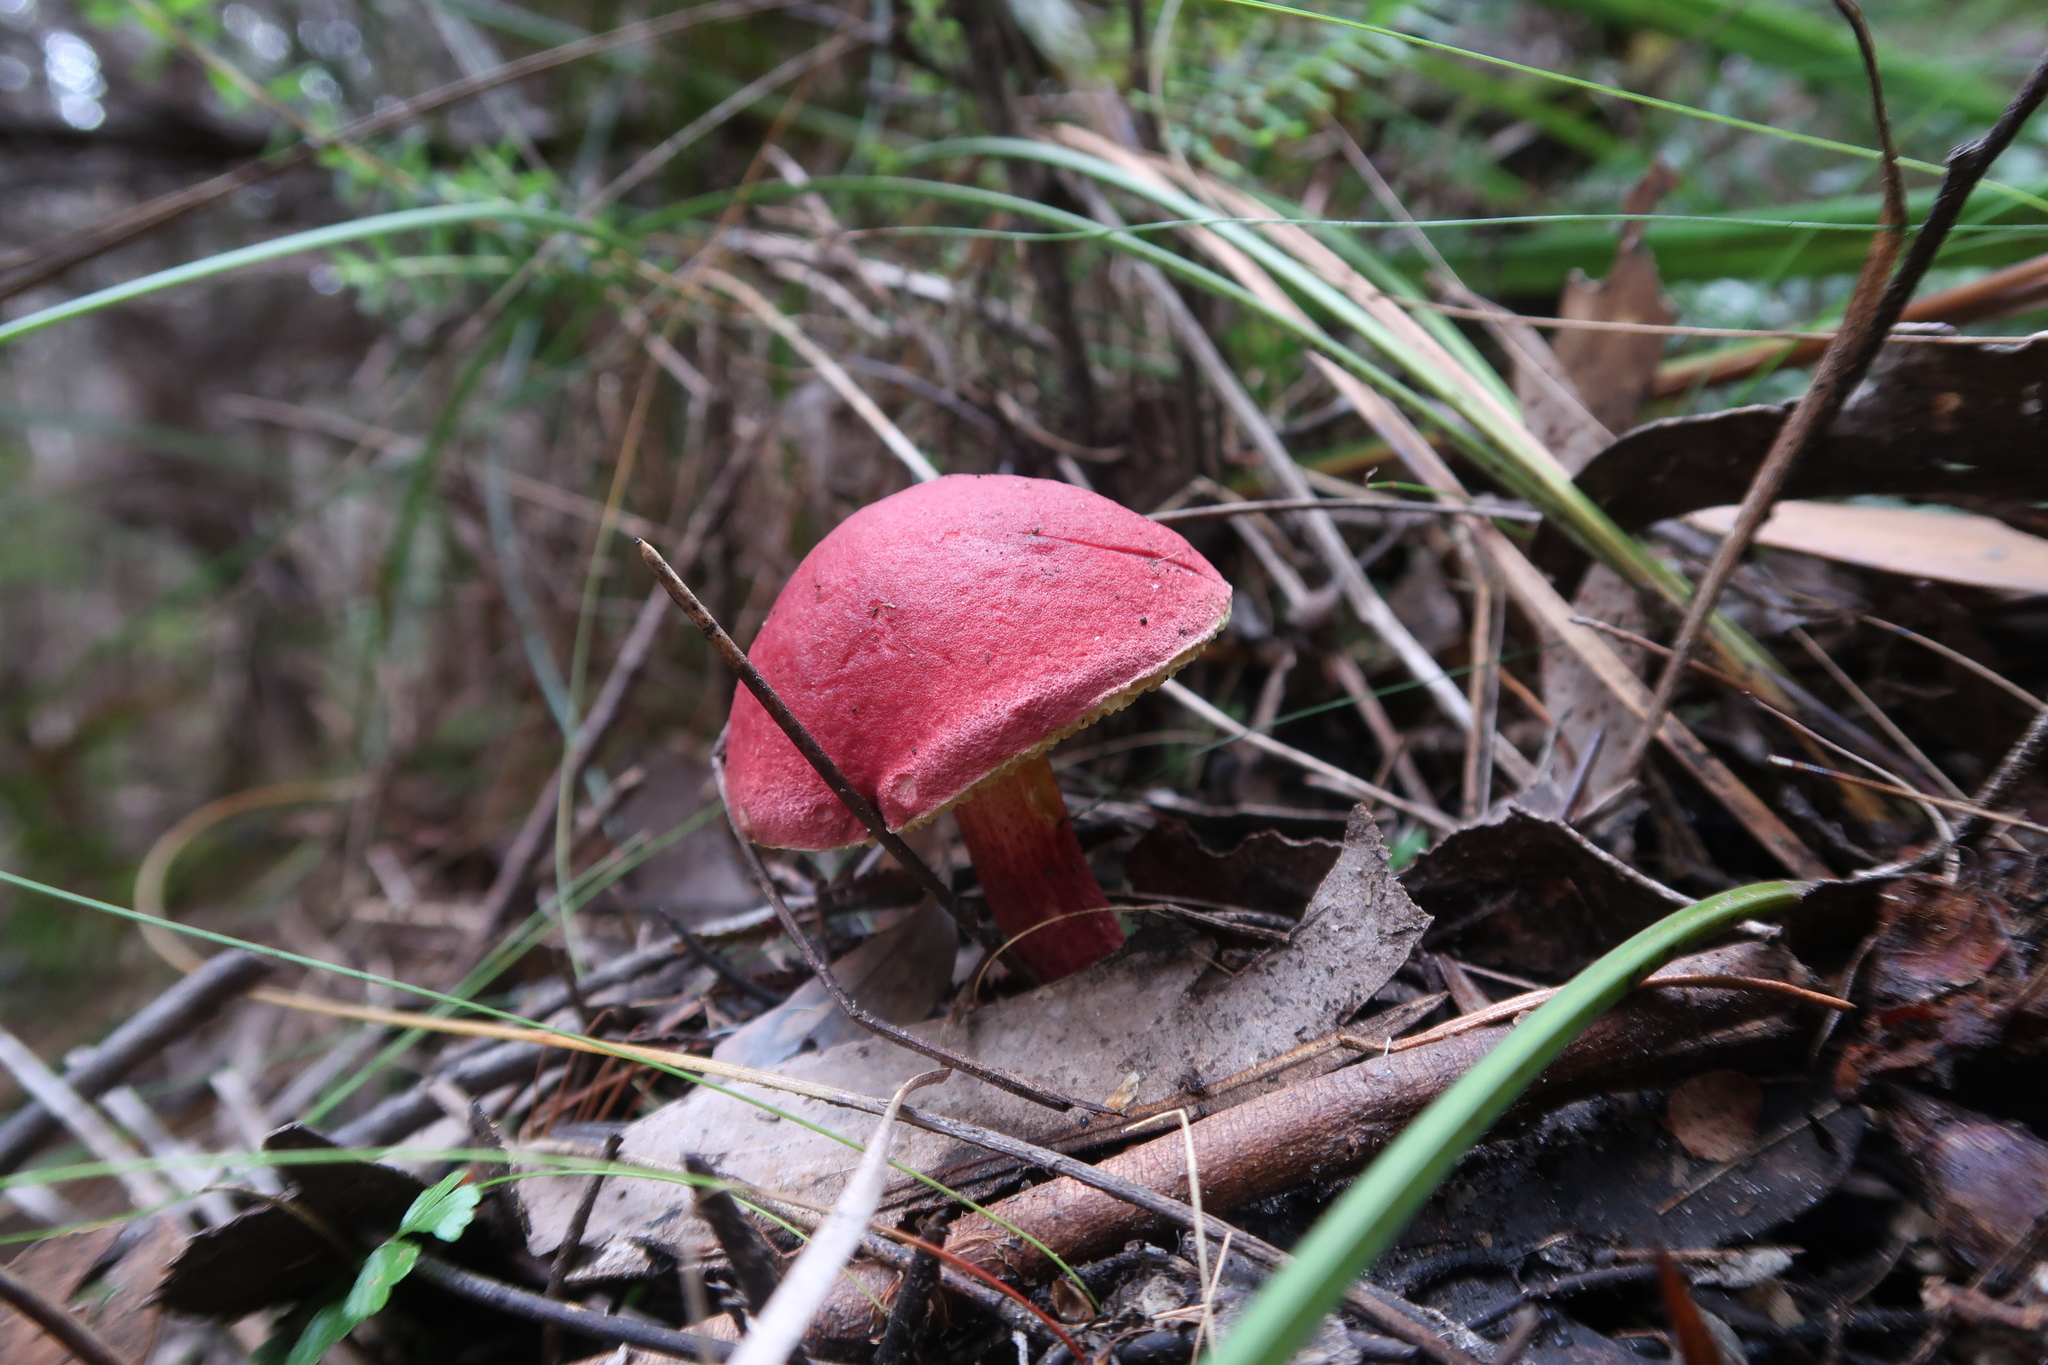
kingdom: Fungi
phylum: Basidiomycota
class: Agaricomycetes
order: Boletales
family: Boletaceae
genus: Boletellus
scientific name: Boletellus obscurecoccineus
